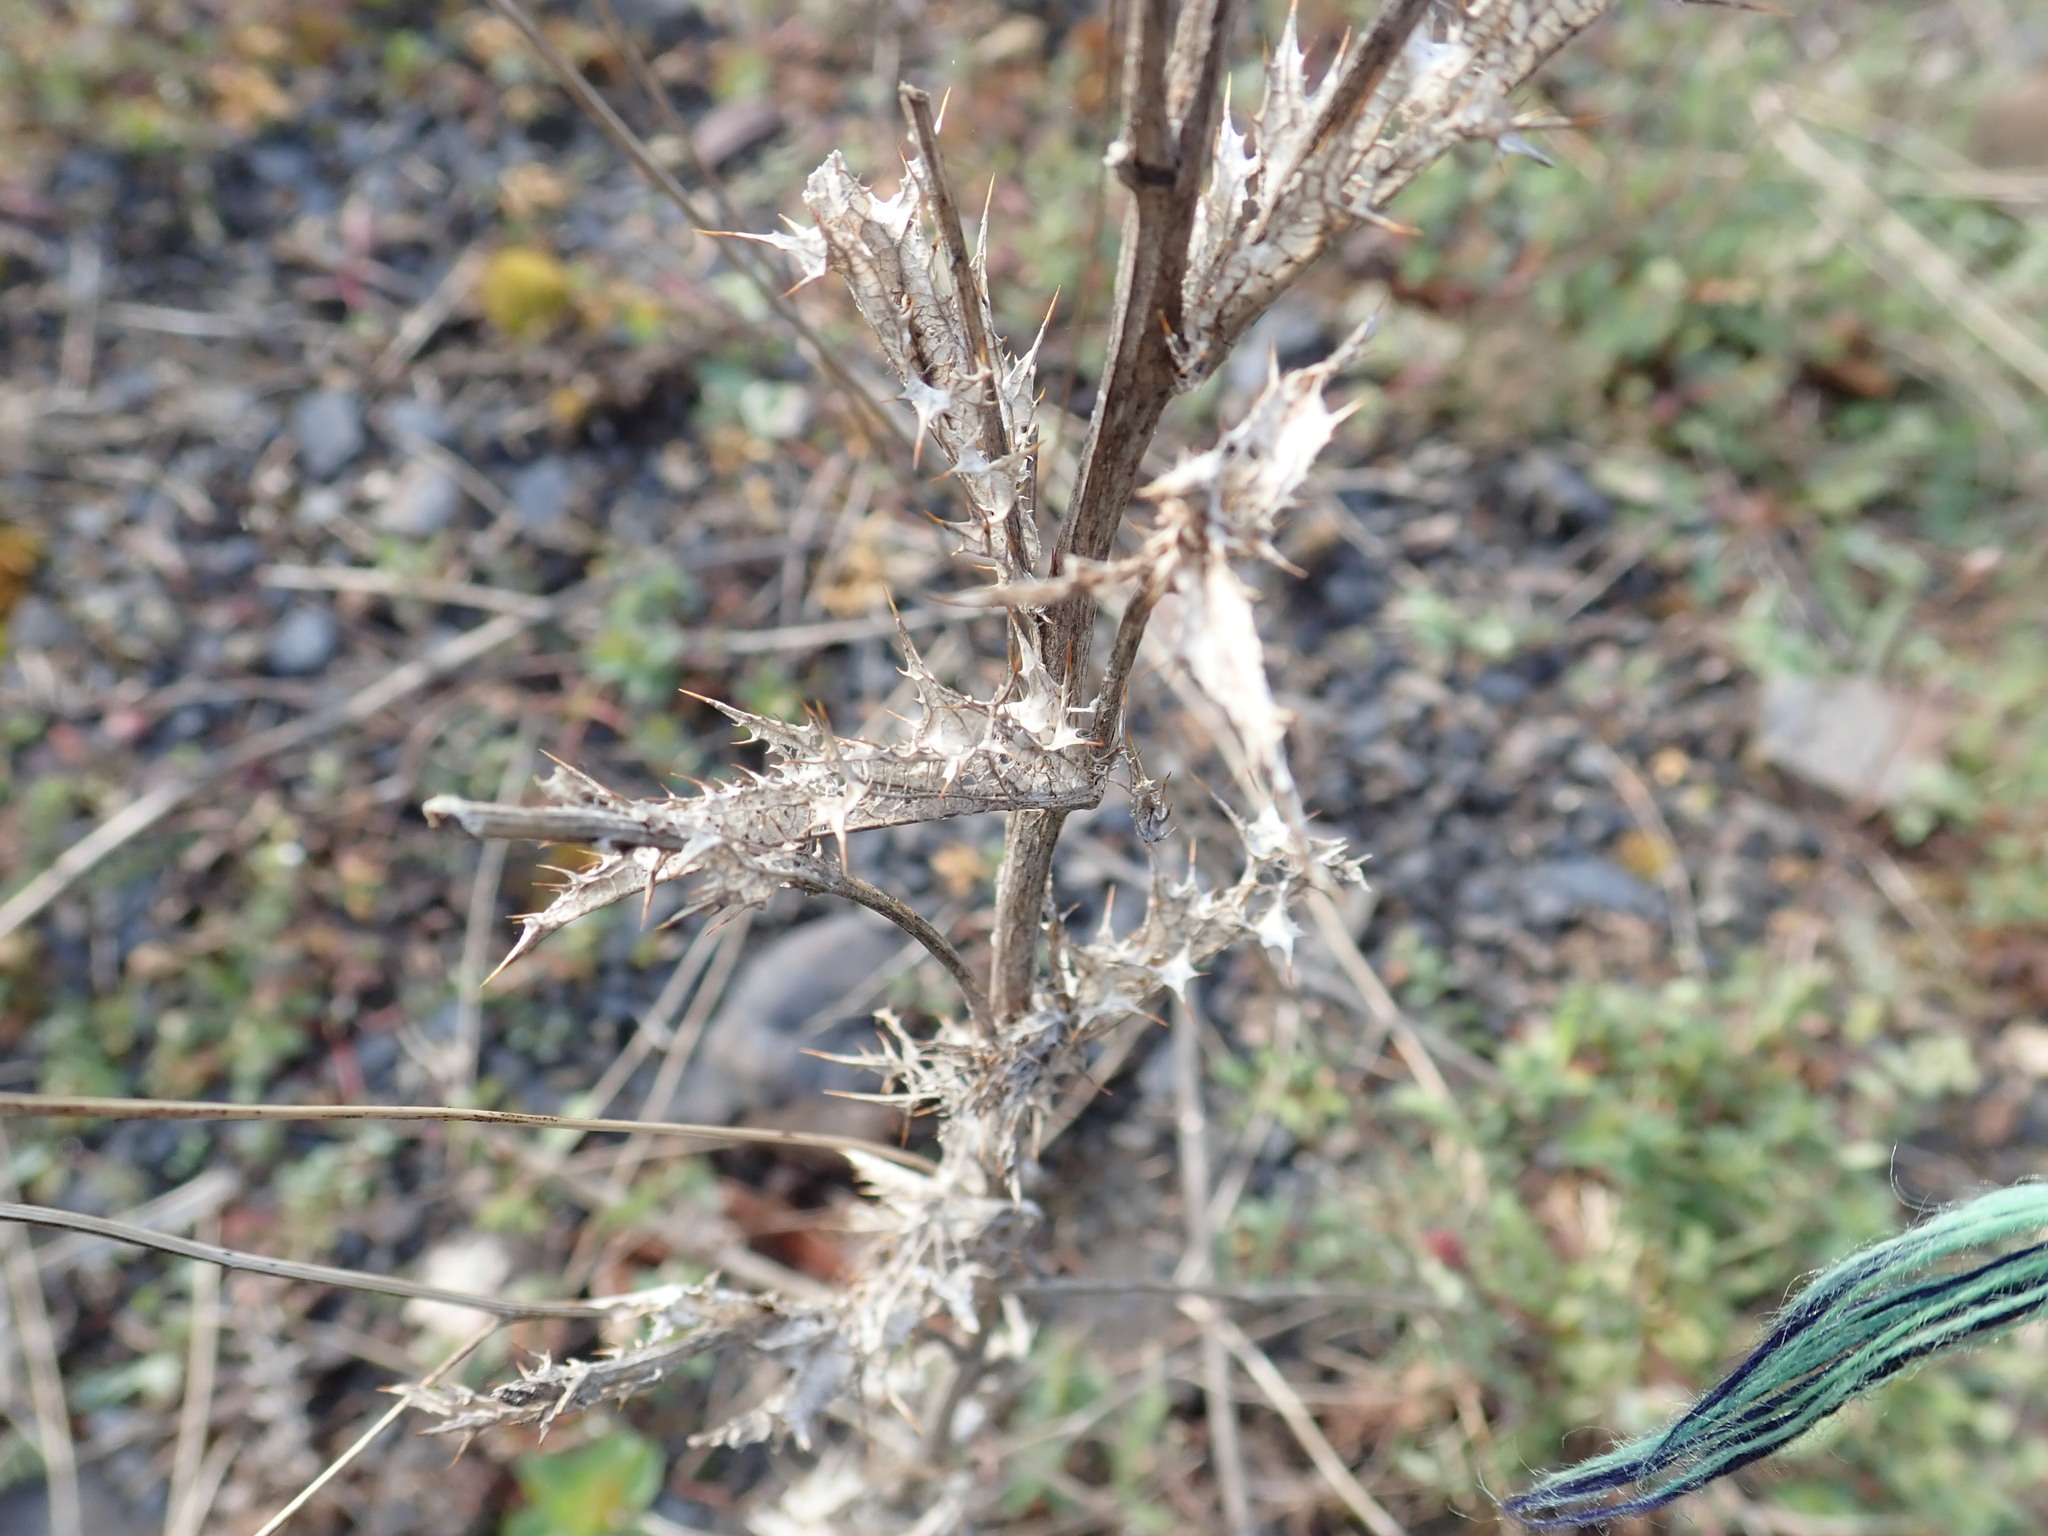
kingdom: Plantae
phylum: Tracheophyta
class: Magnoliopsida
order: Asterales
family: Asteraceae
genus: Carlina
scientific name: Carlina vulgaris
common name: Carline thistle
